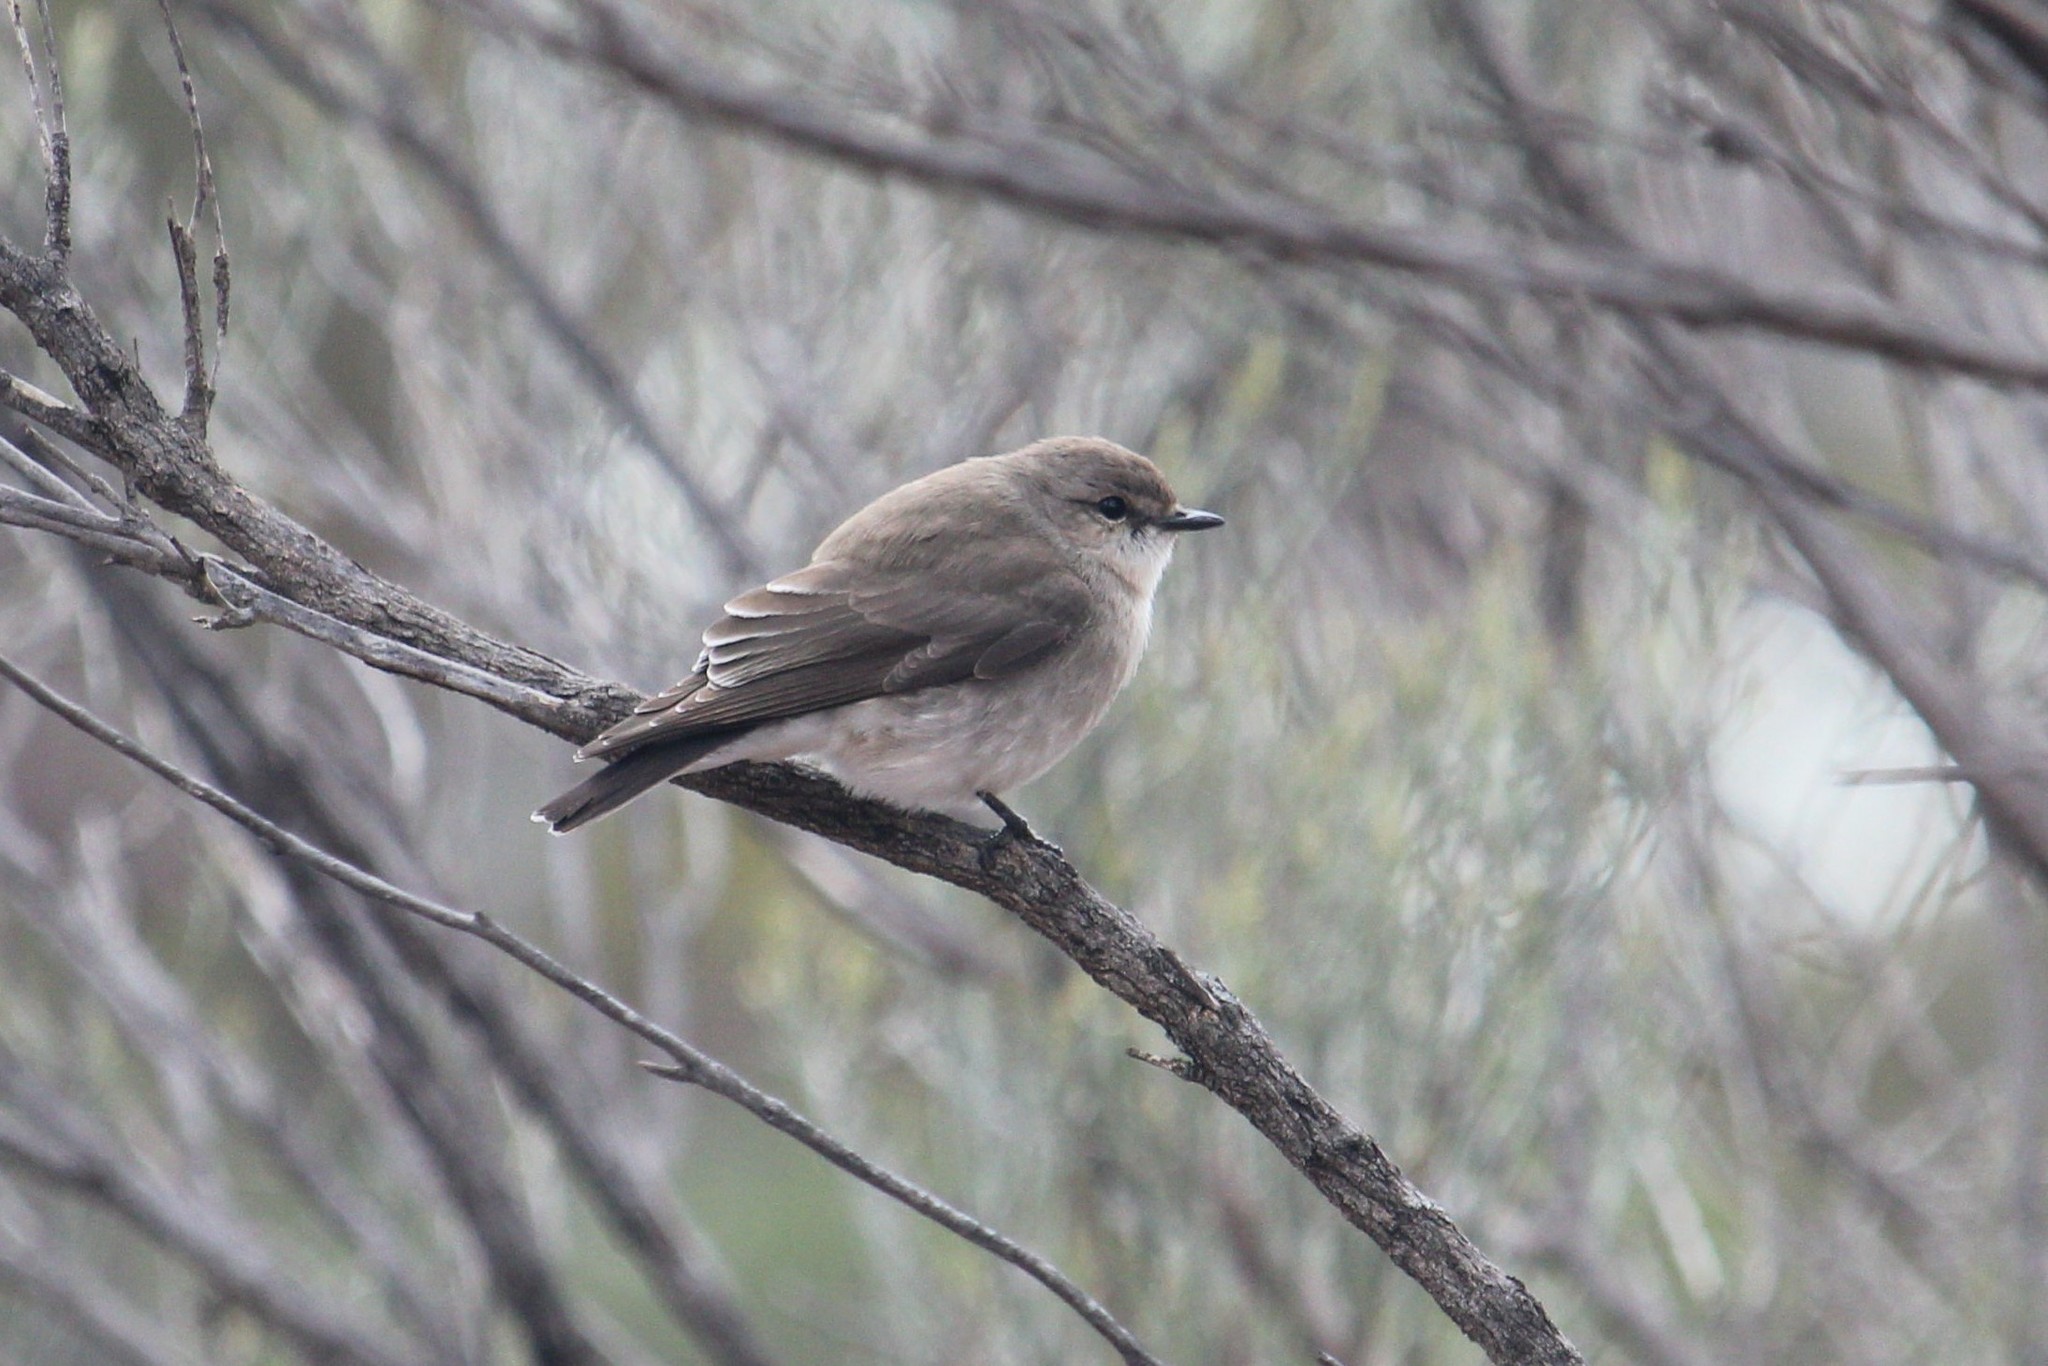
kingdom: Animalia
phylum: Chordata
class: Aves
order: Passeriformes
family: Petroicidae
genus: Microeca
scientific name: Microeca fascinans
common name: Jacky winter
